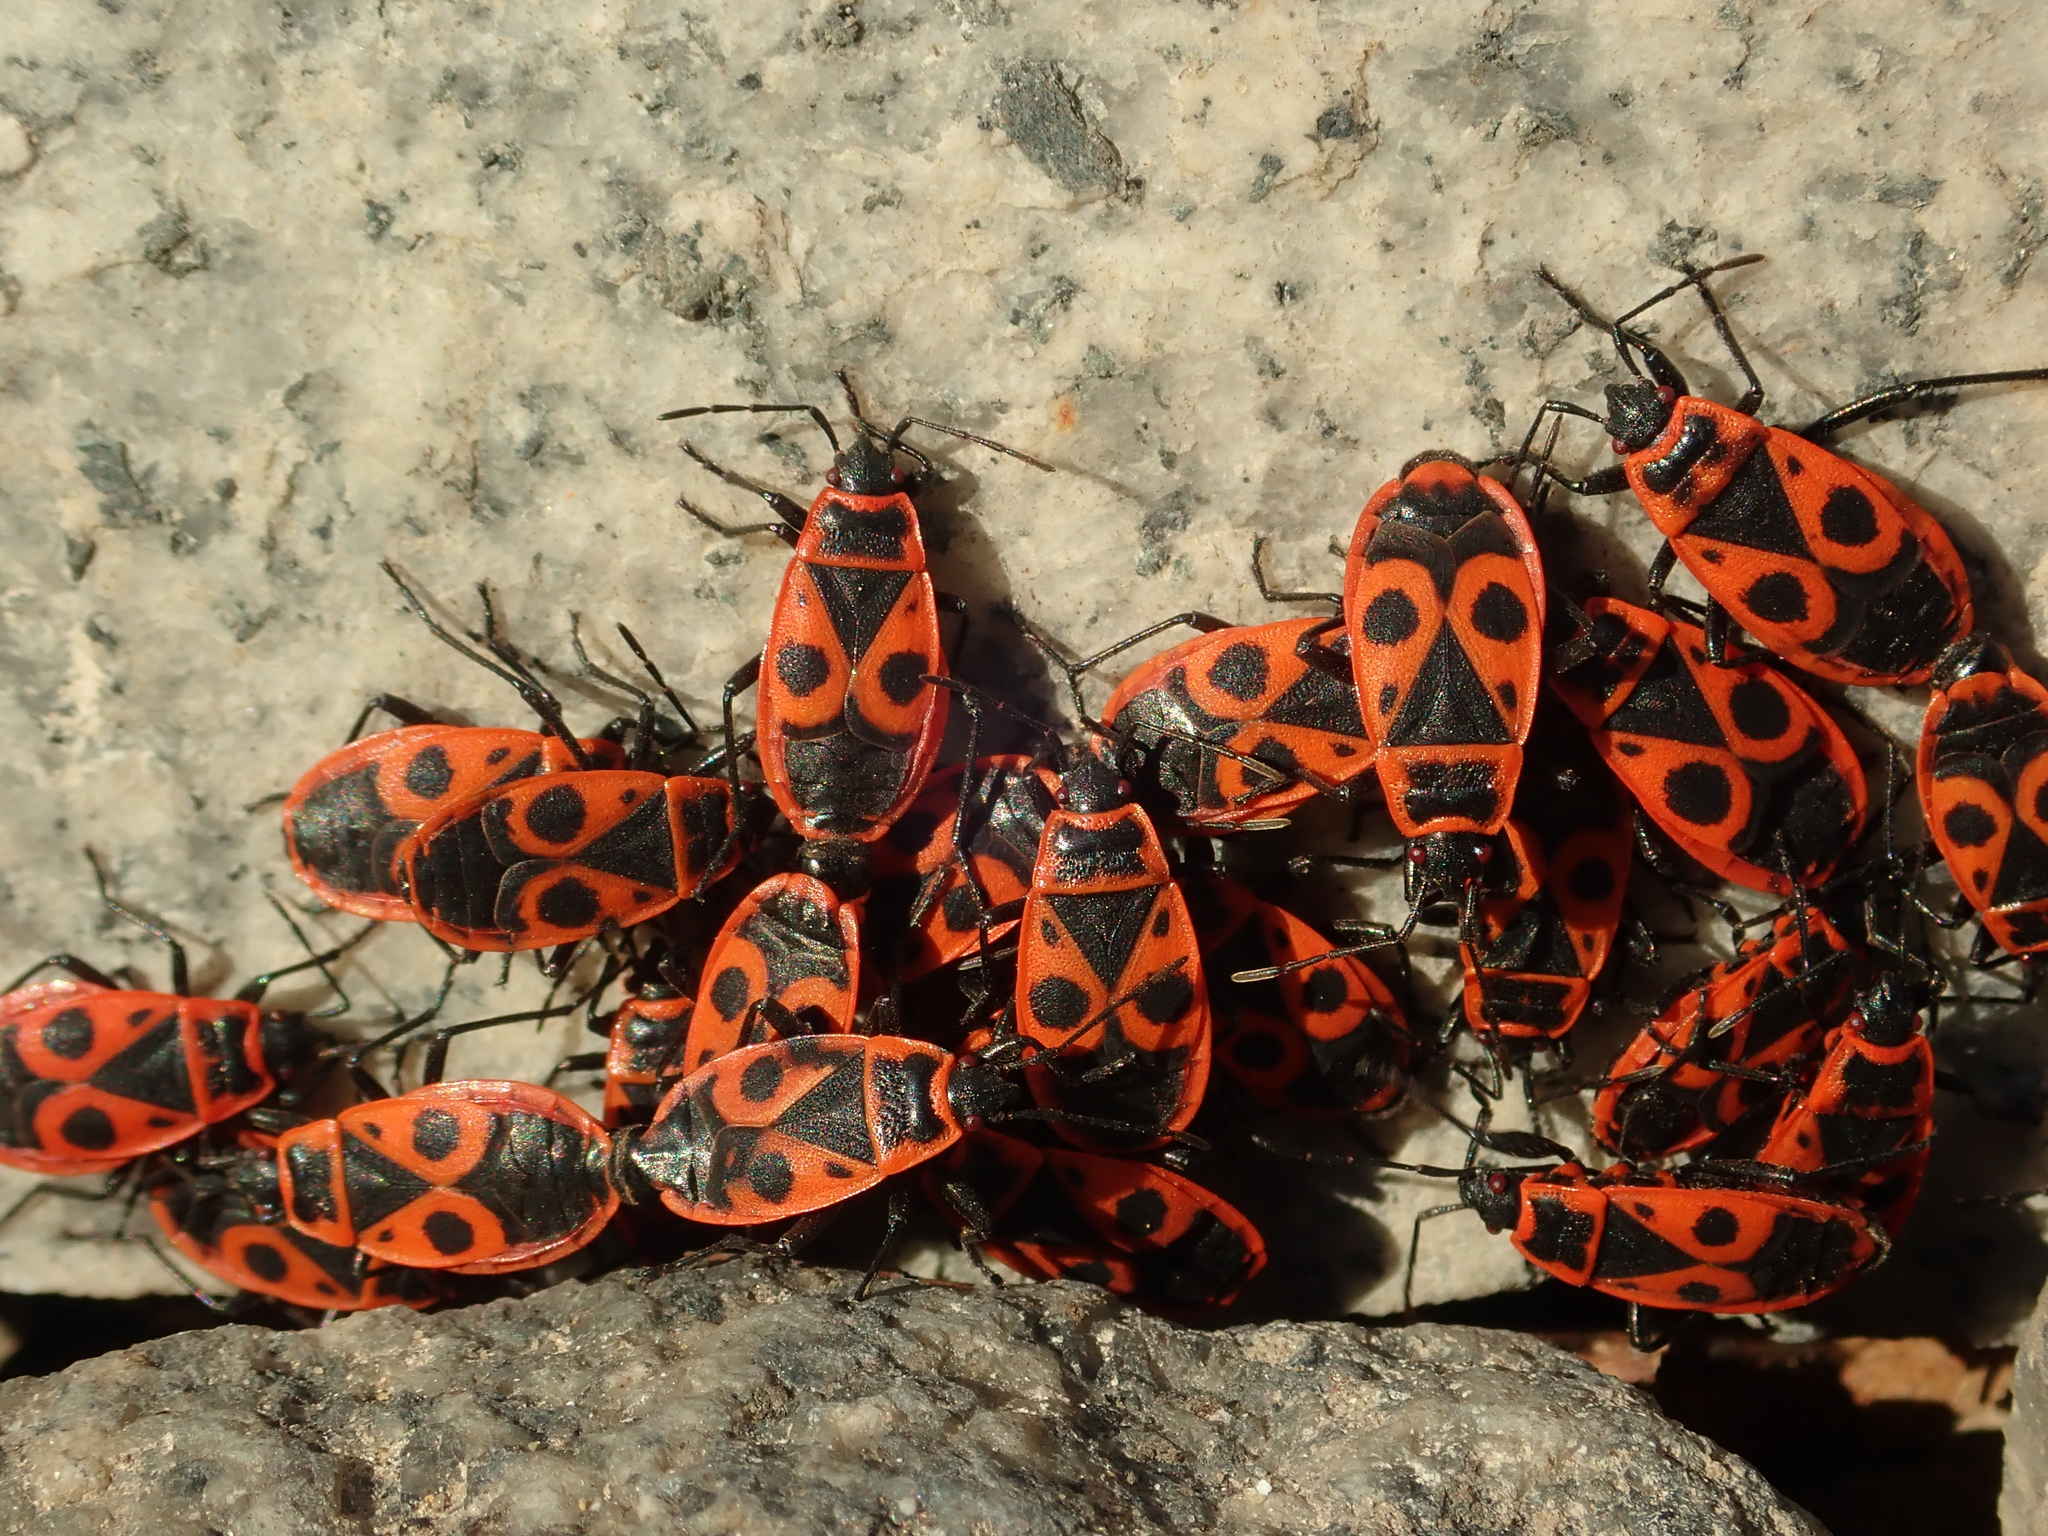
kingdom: Animalia
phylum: Arthropoda
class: Insecta
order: Hemiptera
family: Pyrrhocoridae
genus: Pyrrhocoris
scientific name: Pyrrhocoris apterus
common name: Firebug
